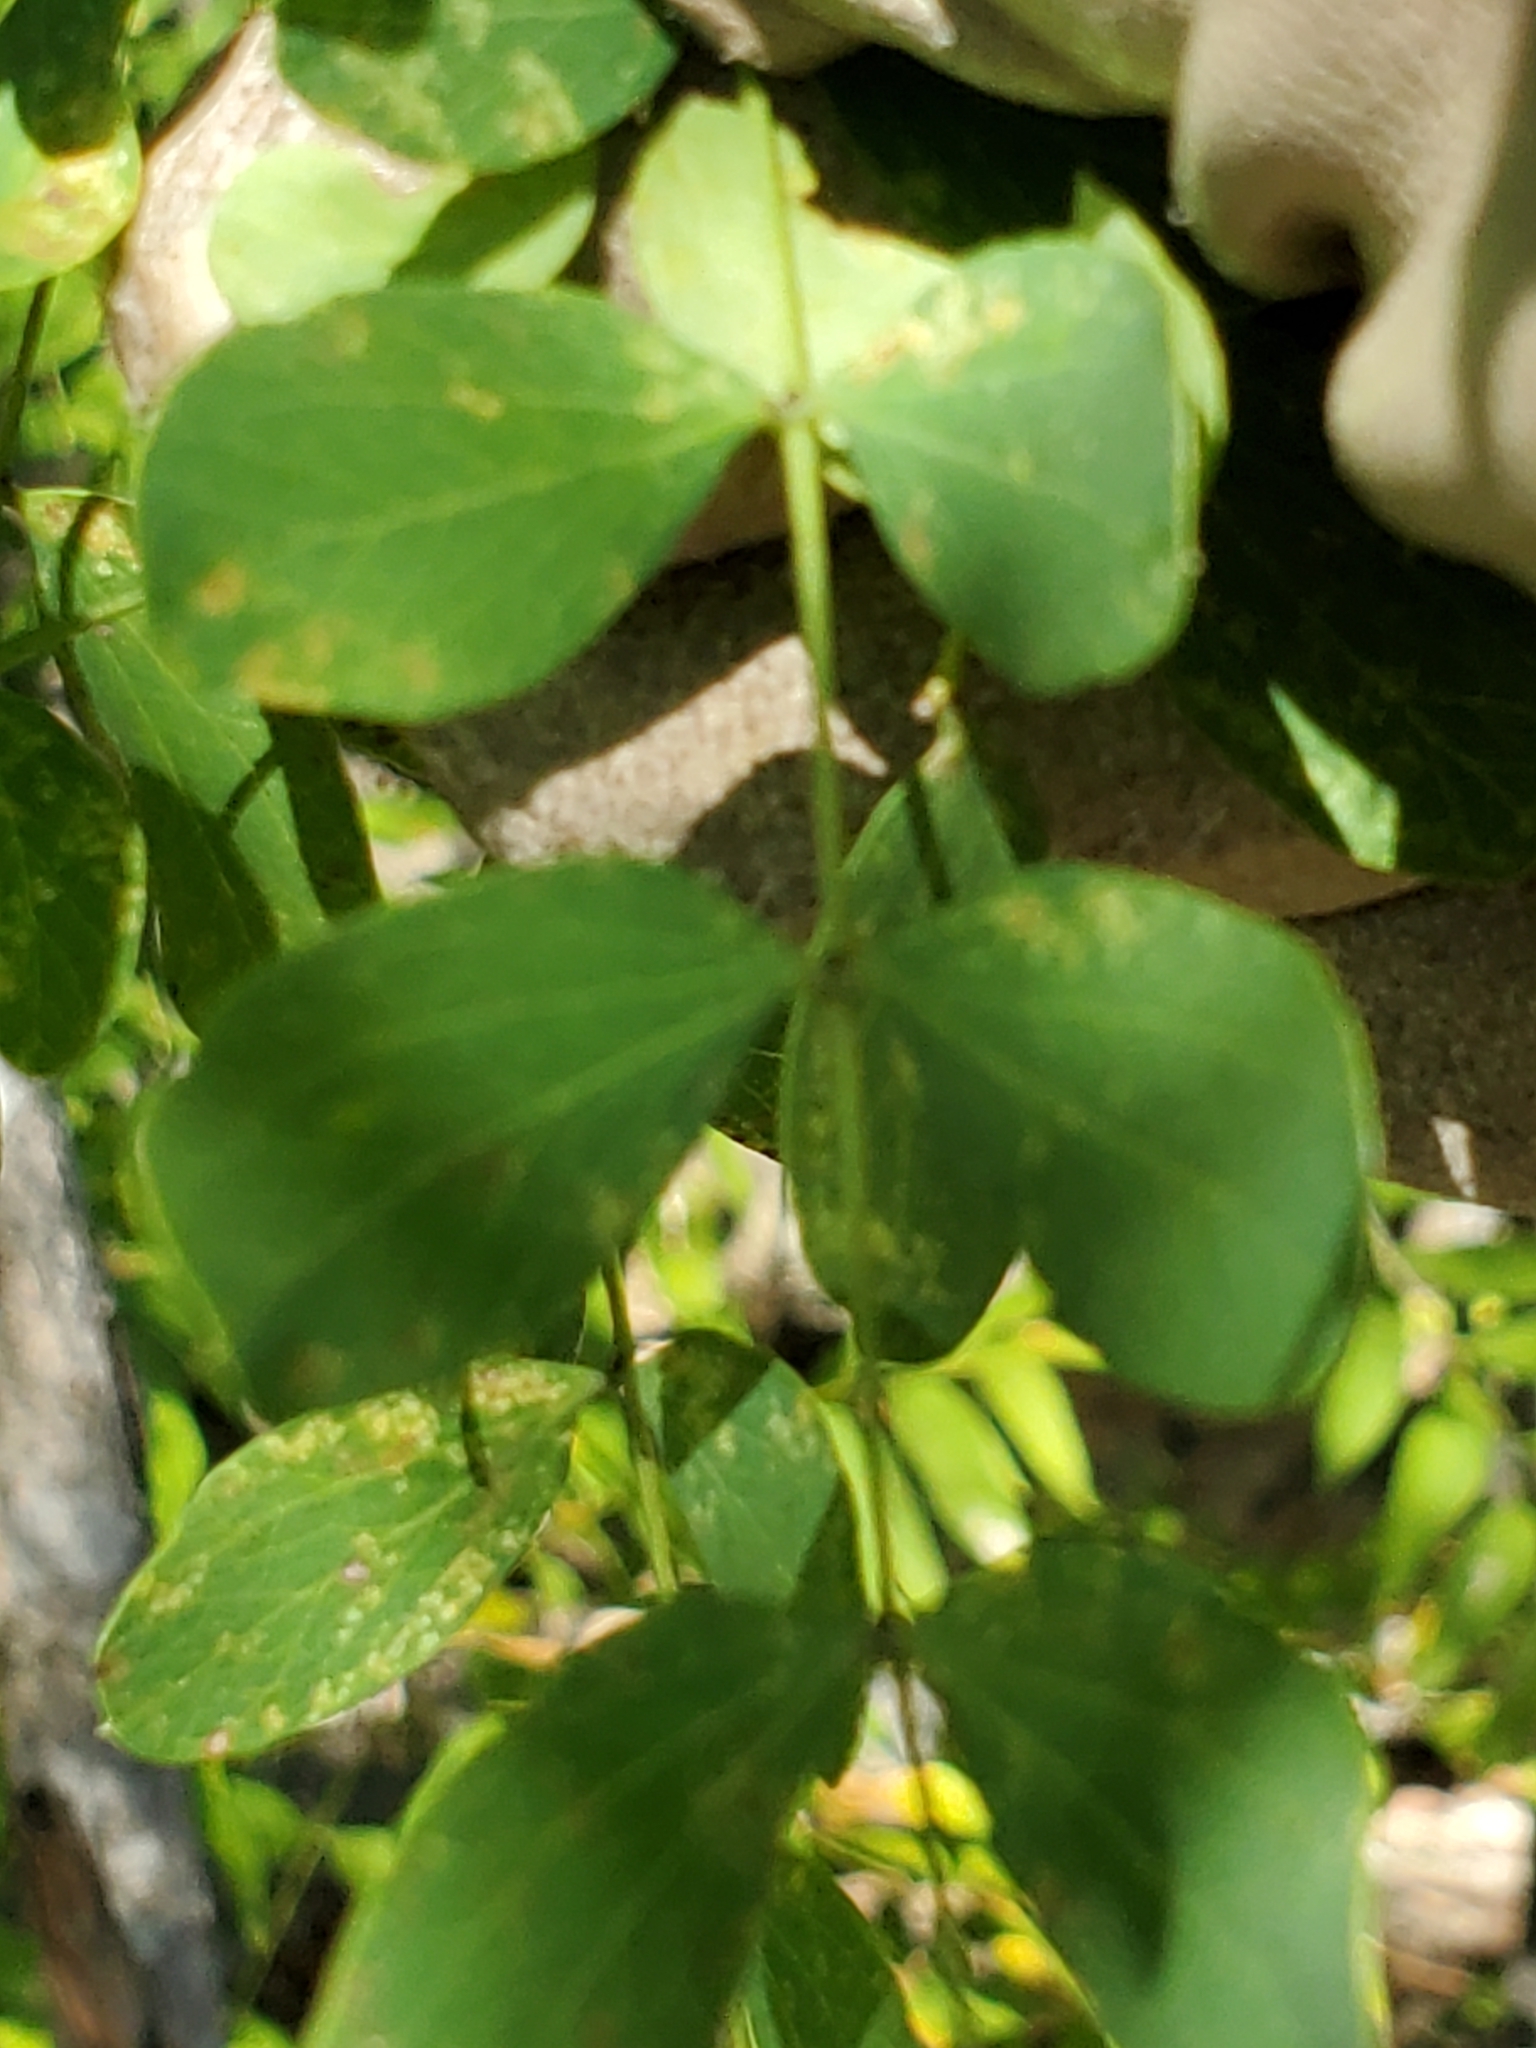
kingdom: Plantae
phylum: Tracheophyta
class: Magnoliopsida
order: Fabales
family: Fabaceae
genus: Leucaena
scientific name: Leucaena retusa
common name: Littleleaf leadtree
